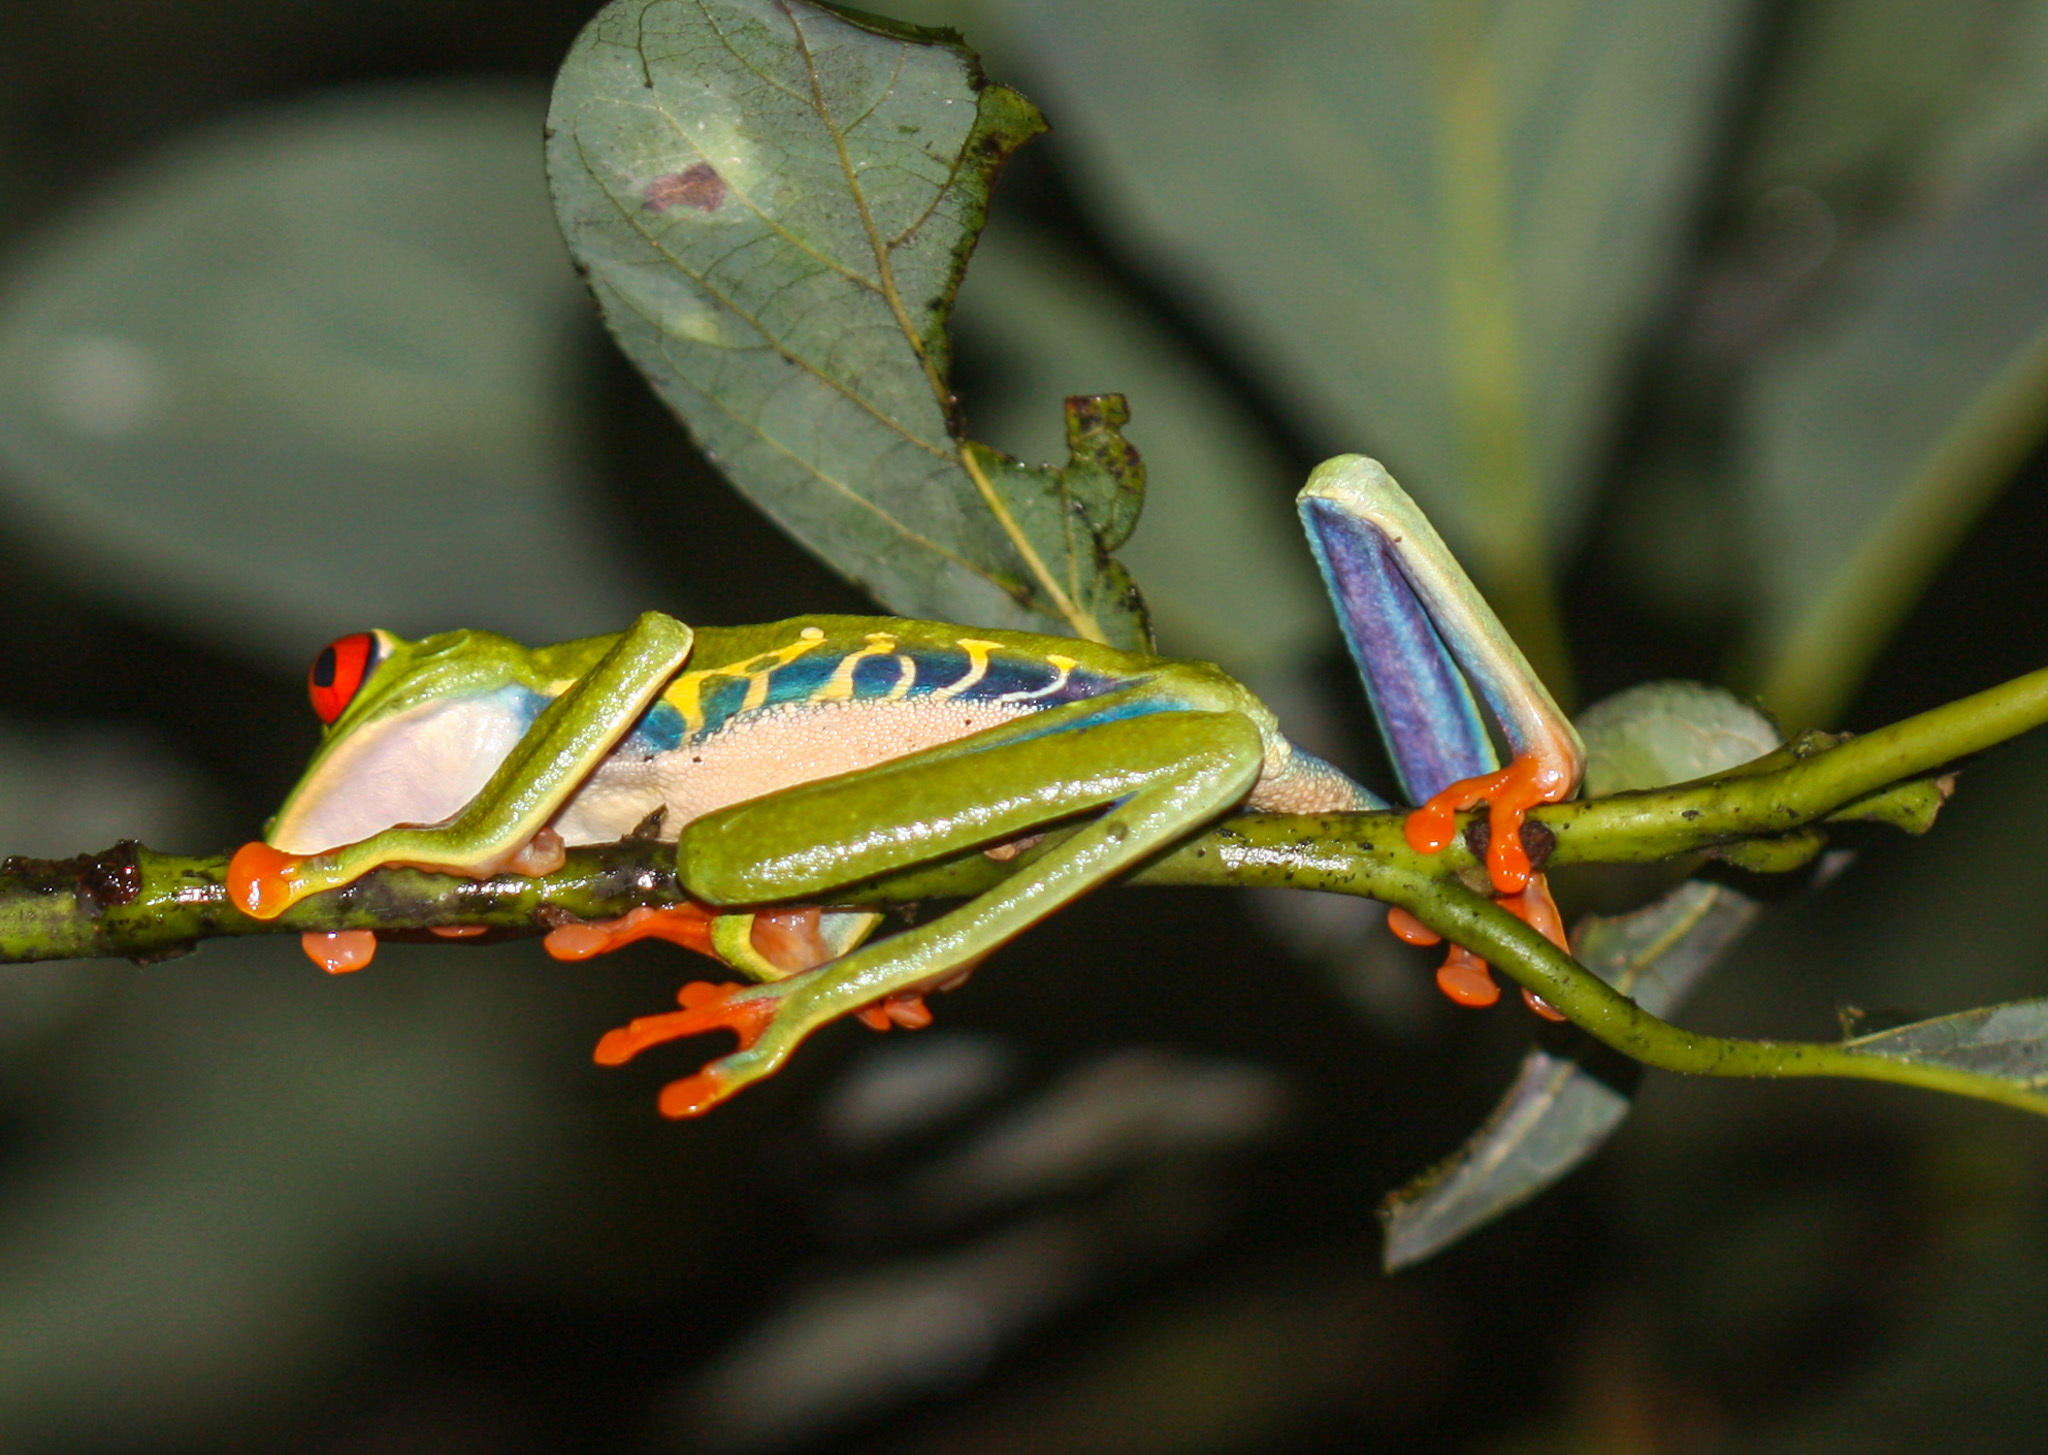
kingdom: Animalia
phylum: Chordata
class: Amphibia
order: Anura
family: Phyllomedusidae
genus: Agalychnis
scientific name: Agalychnis callidryas
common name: Red-eyed treefrog
